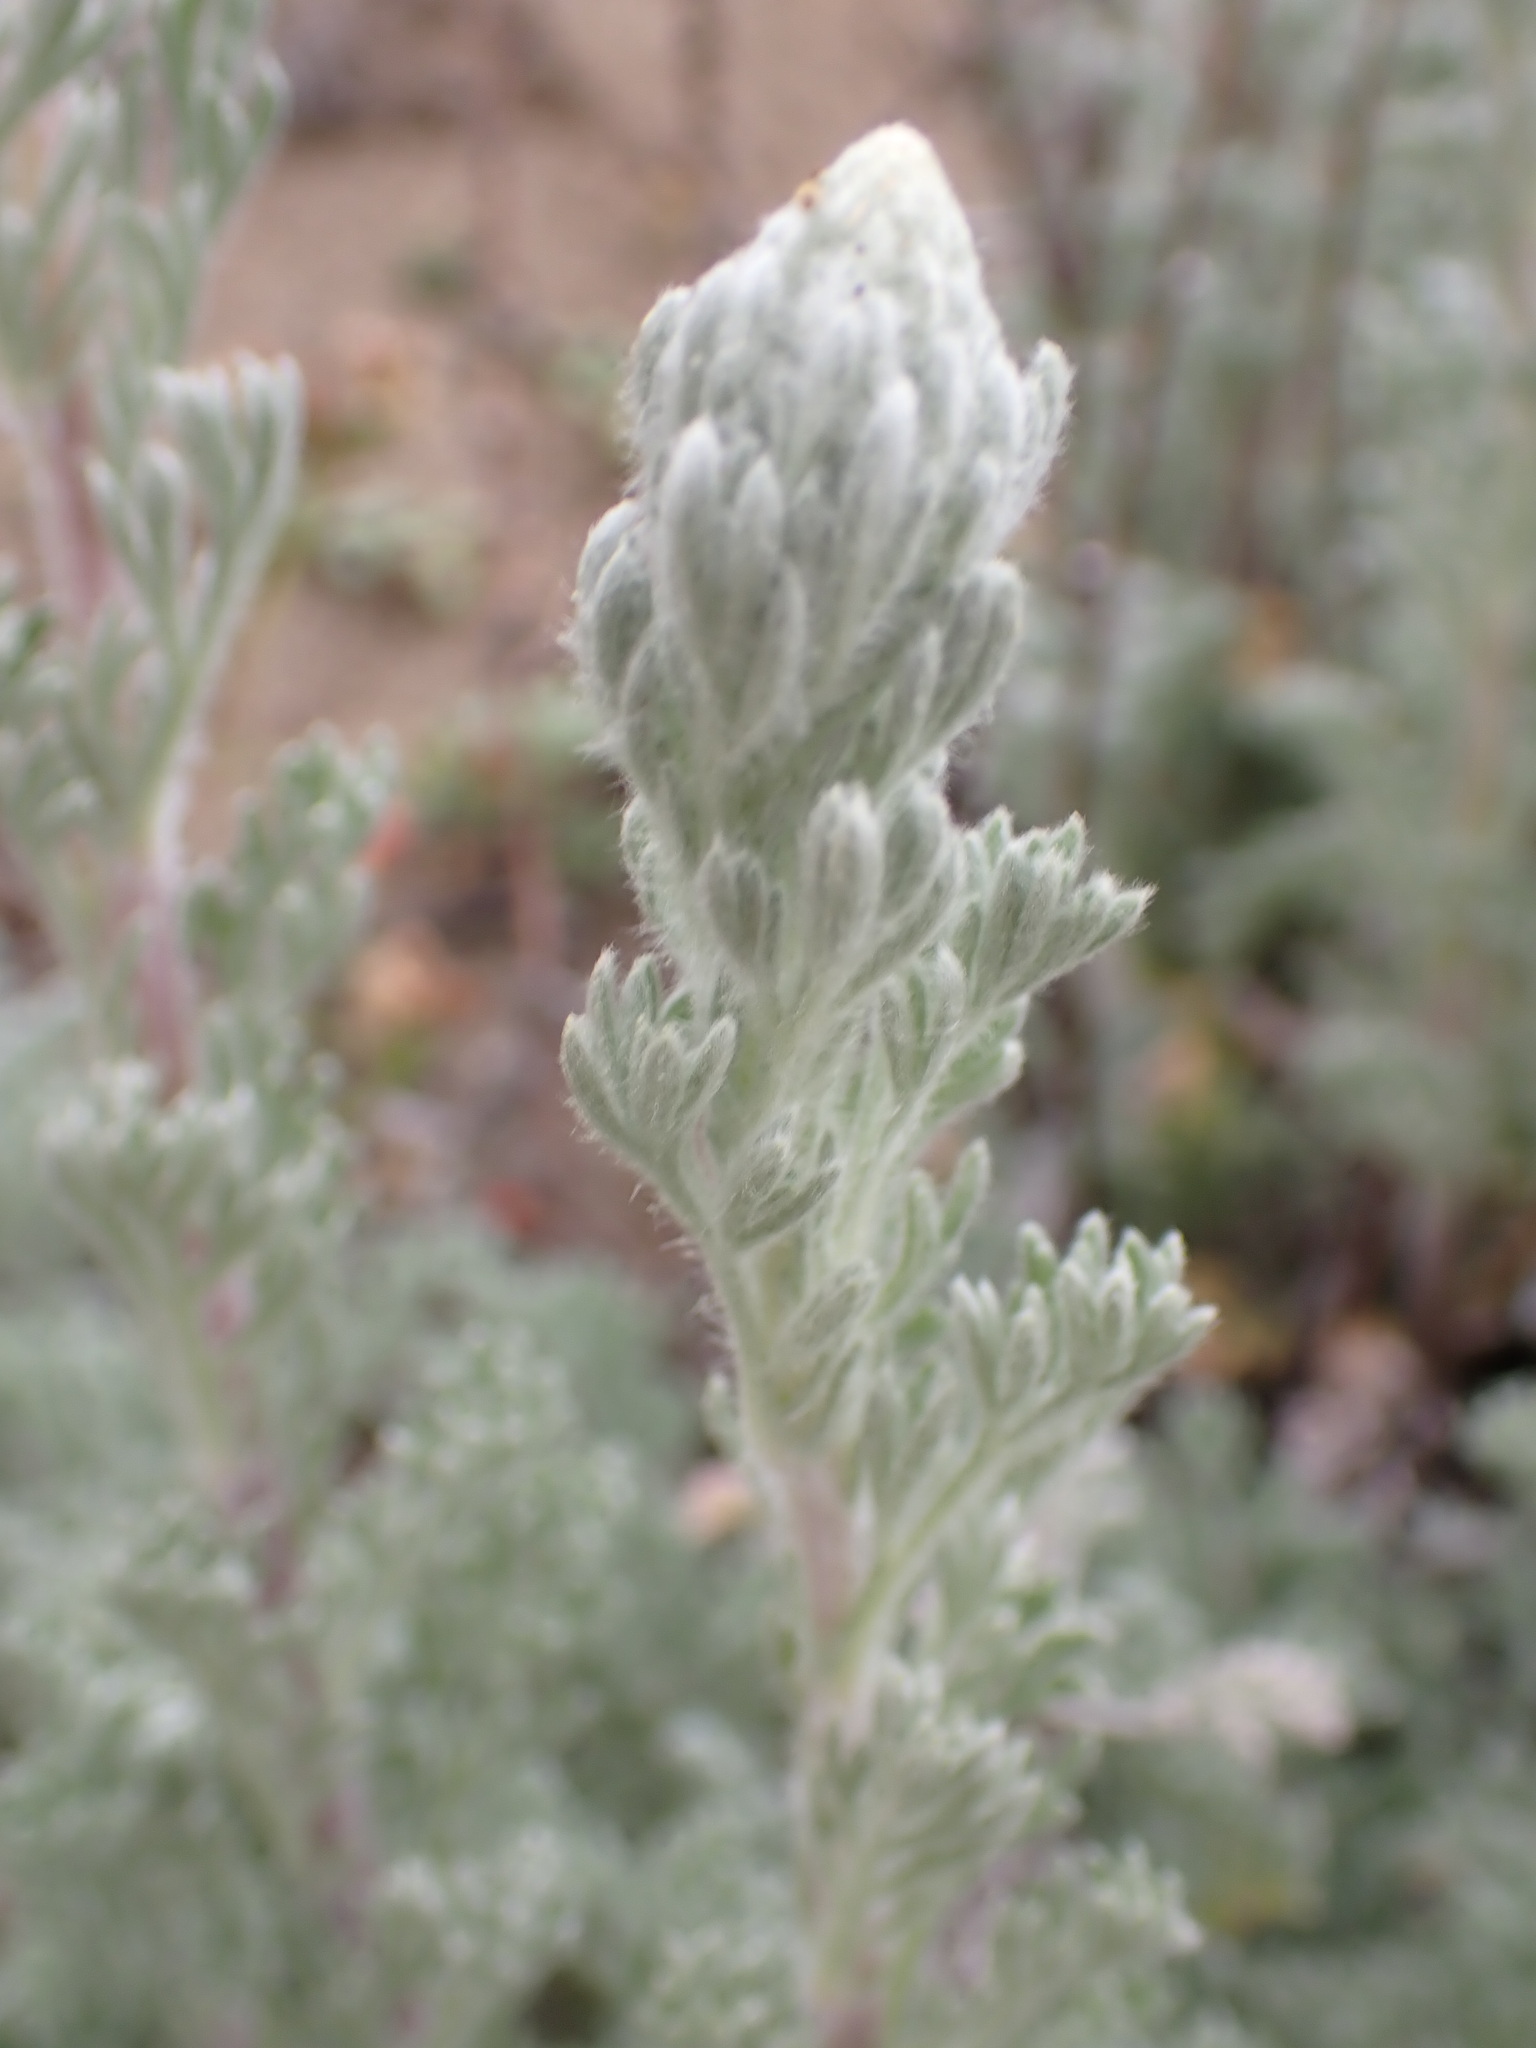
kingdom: Plantae
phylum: Tracheophyta
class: Magnoliopsida
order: Asterales
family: Asteraceae
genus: Artemisia
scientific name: Artemisia pycnocephala
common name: Coastal sagewort
